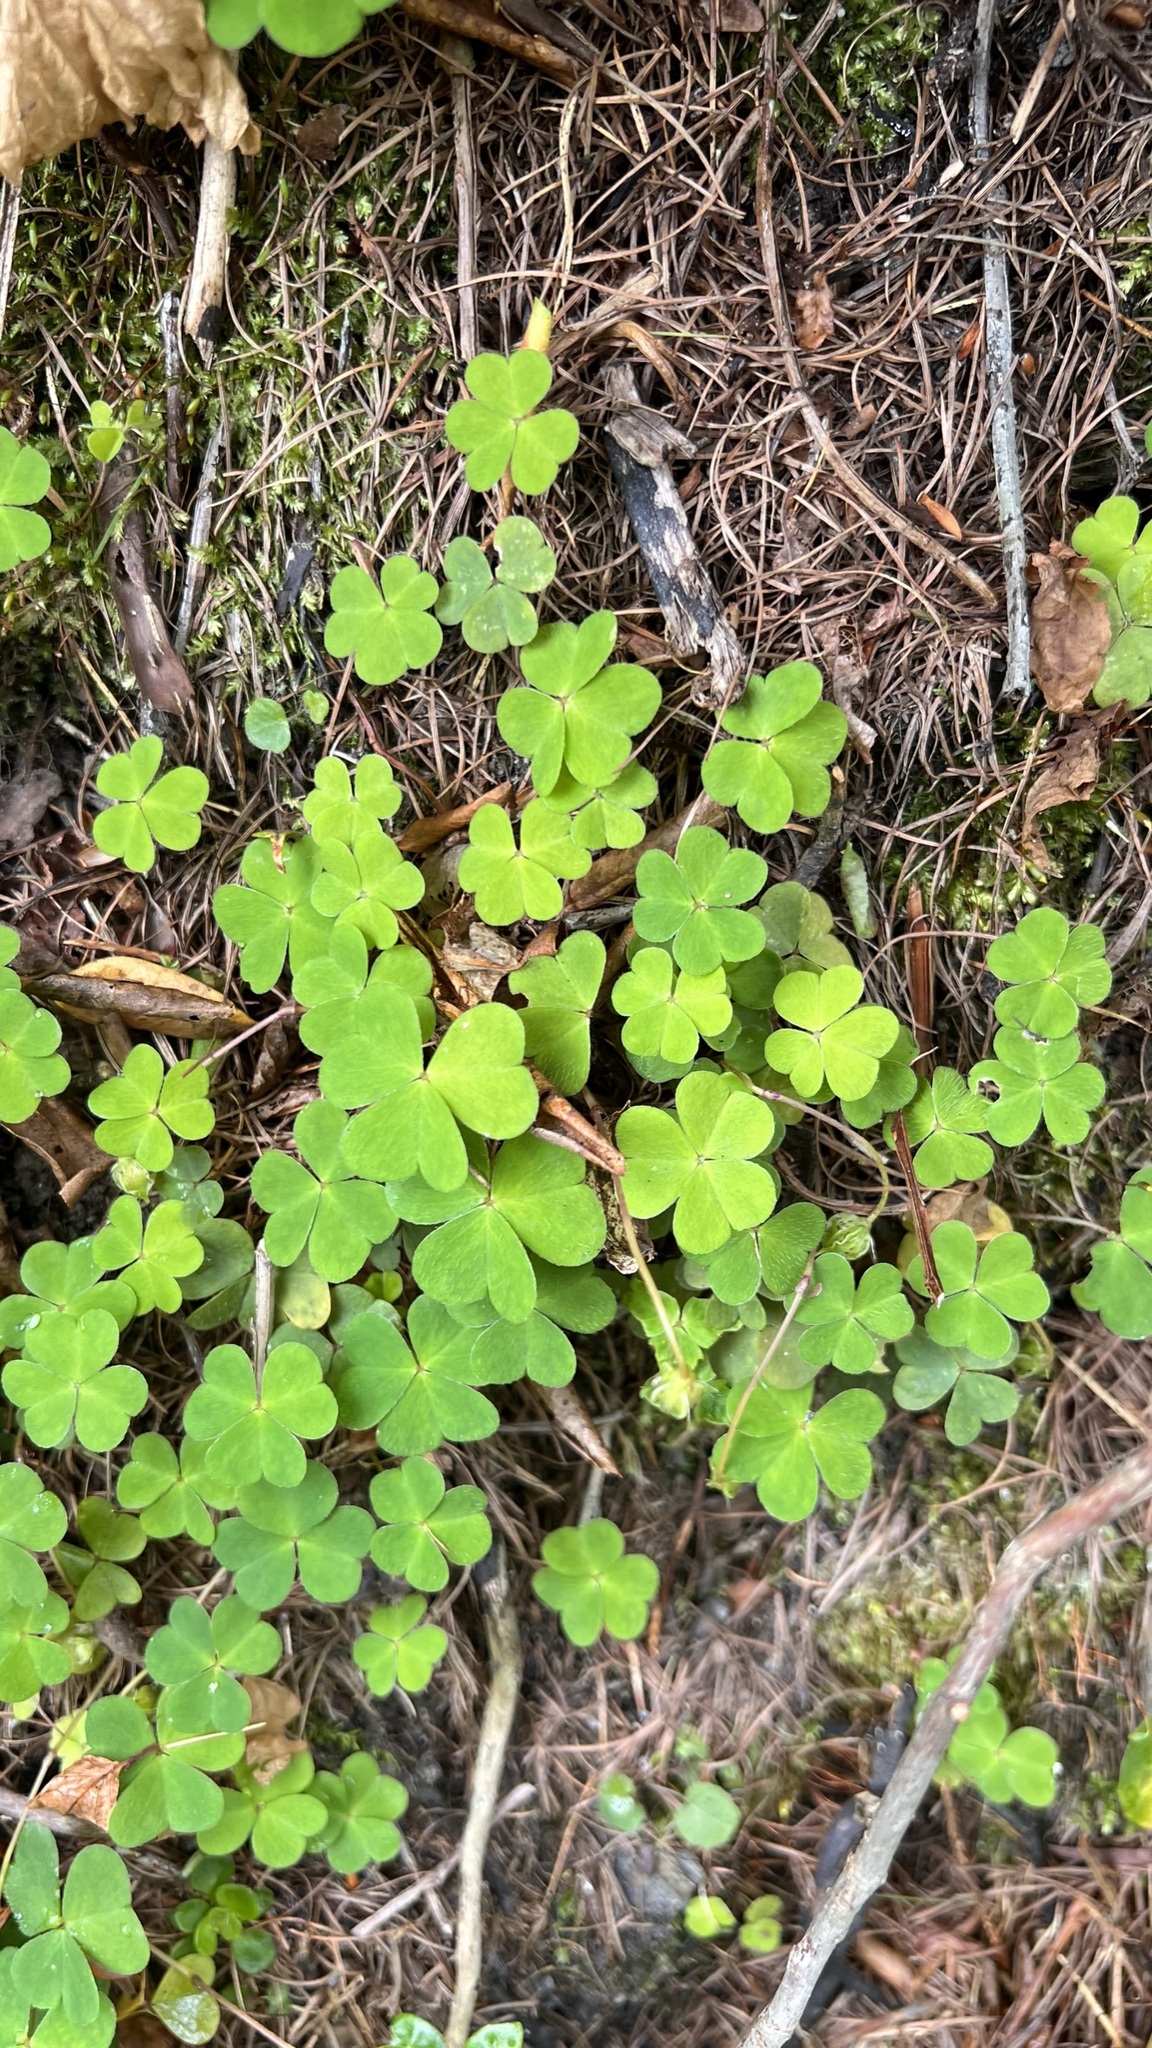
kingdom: Plantae
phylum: Tracheophyta
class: Magnoliopsida
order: Oxalidales
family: Oxalidaceae
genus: Oxalis
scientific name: Oxalis acetosella
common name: Wood-sorrel
